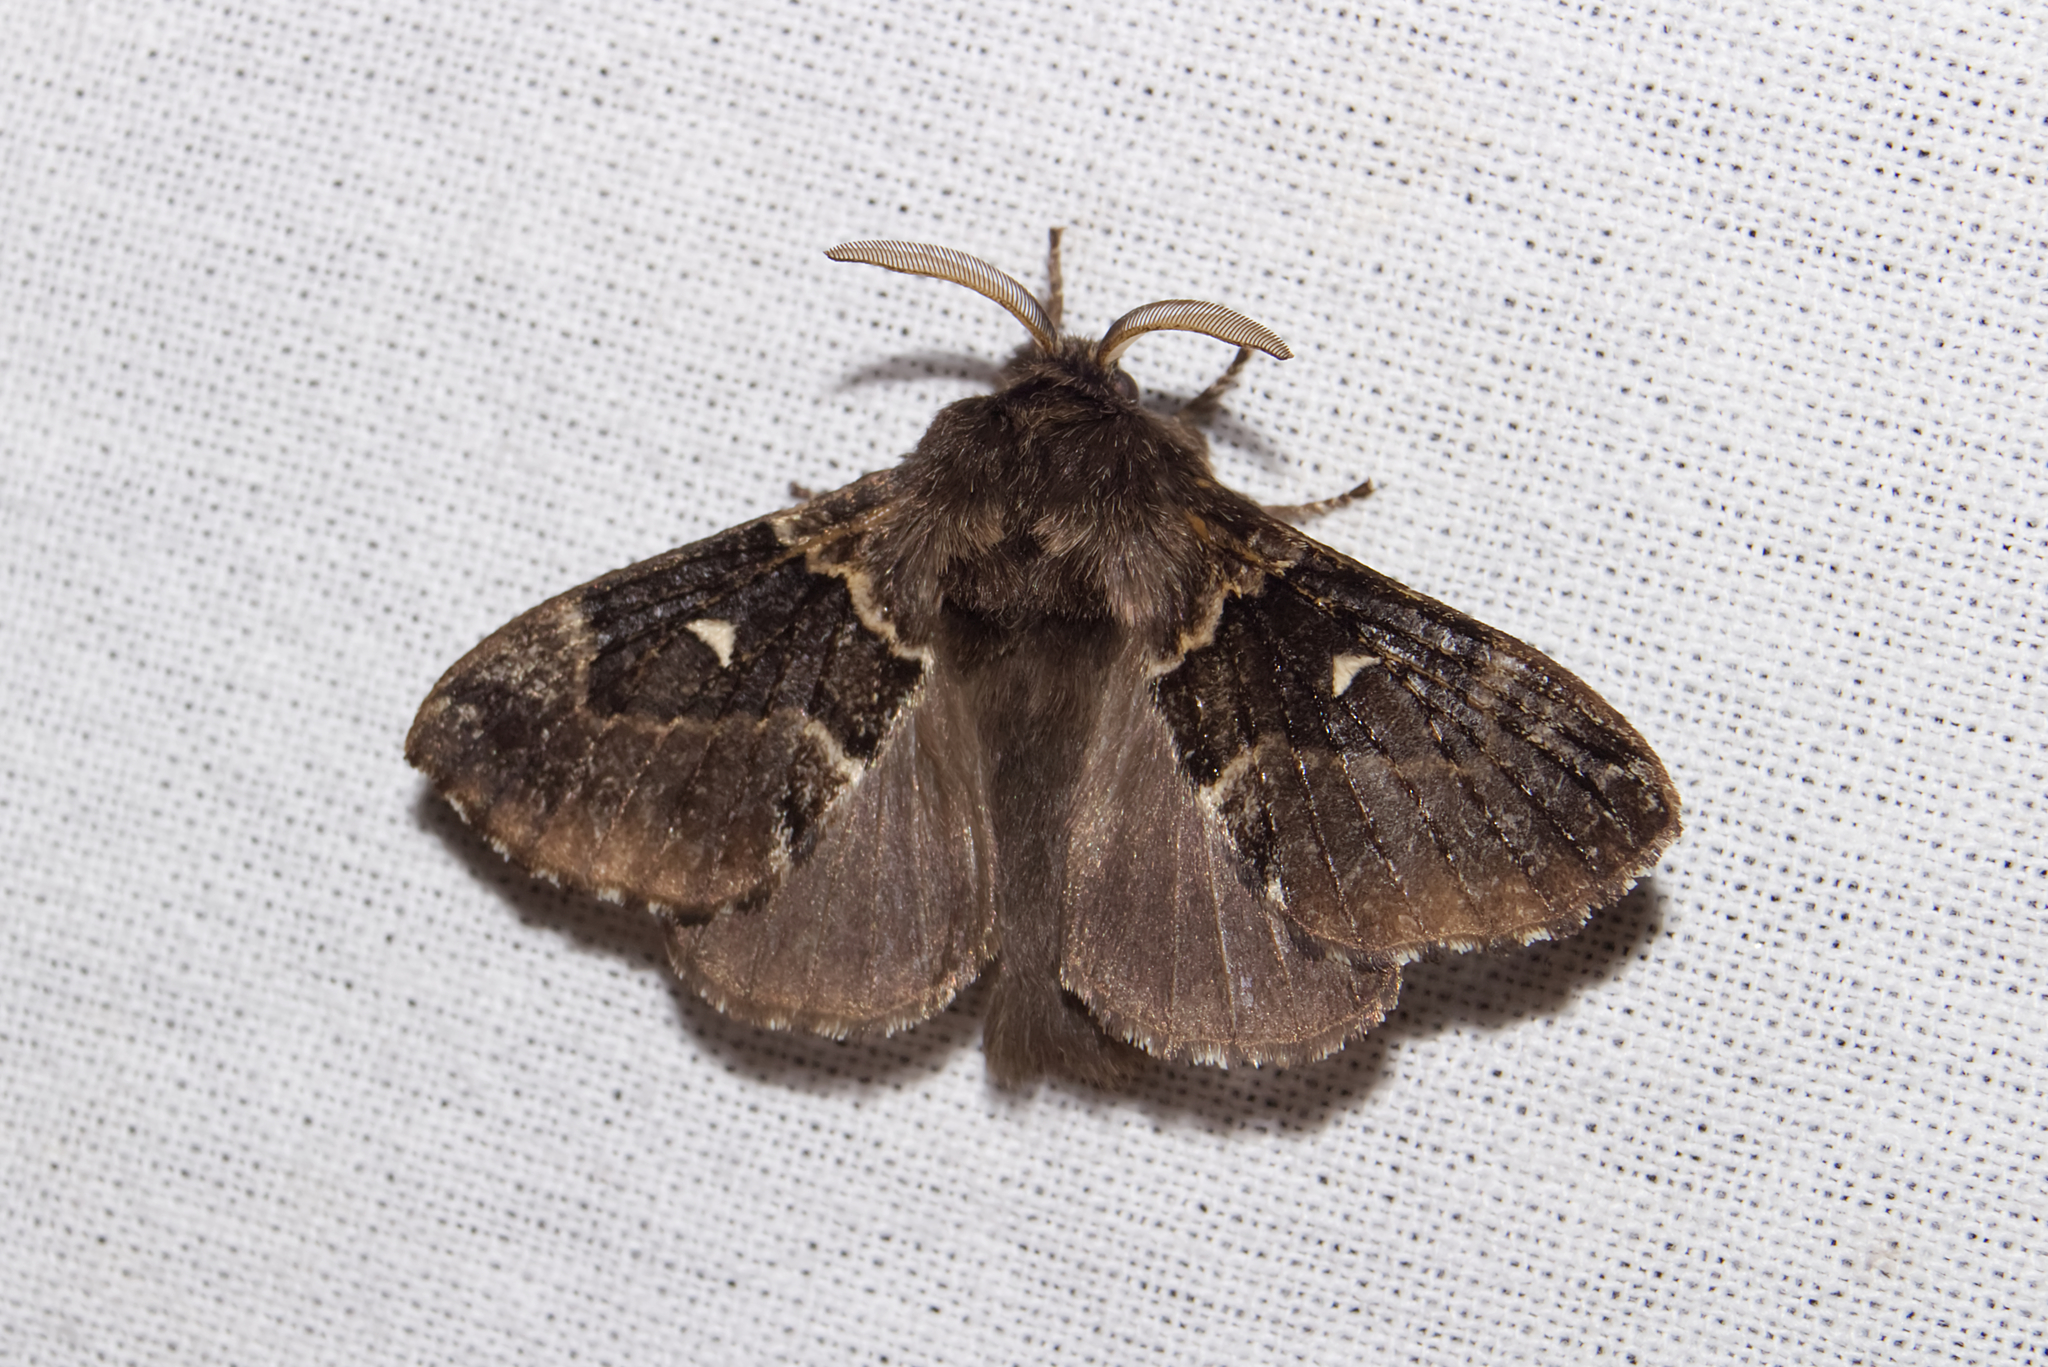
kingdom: Animalia
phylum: Arthropoda
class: Insecta
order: Lepidoptera
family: Lasiocampidae
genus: Cosmotriche
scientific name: Cosmotriche lobulina
